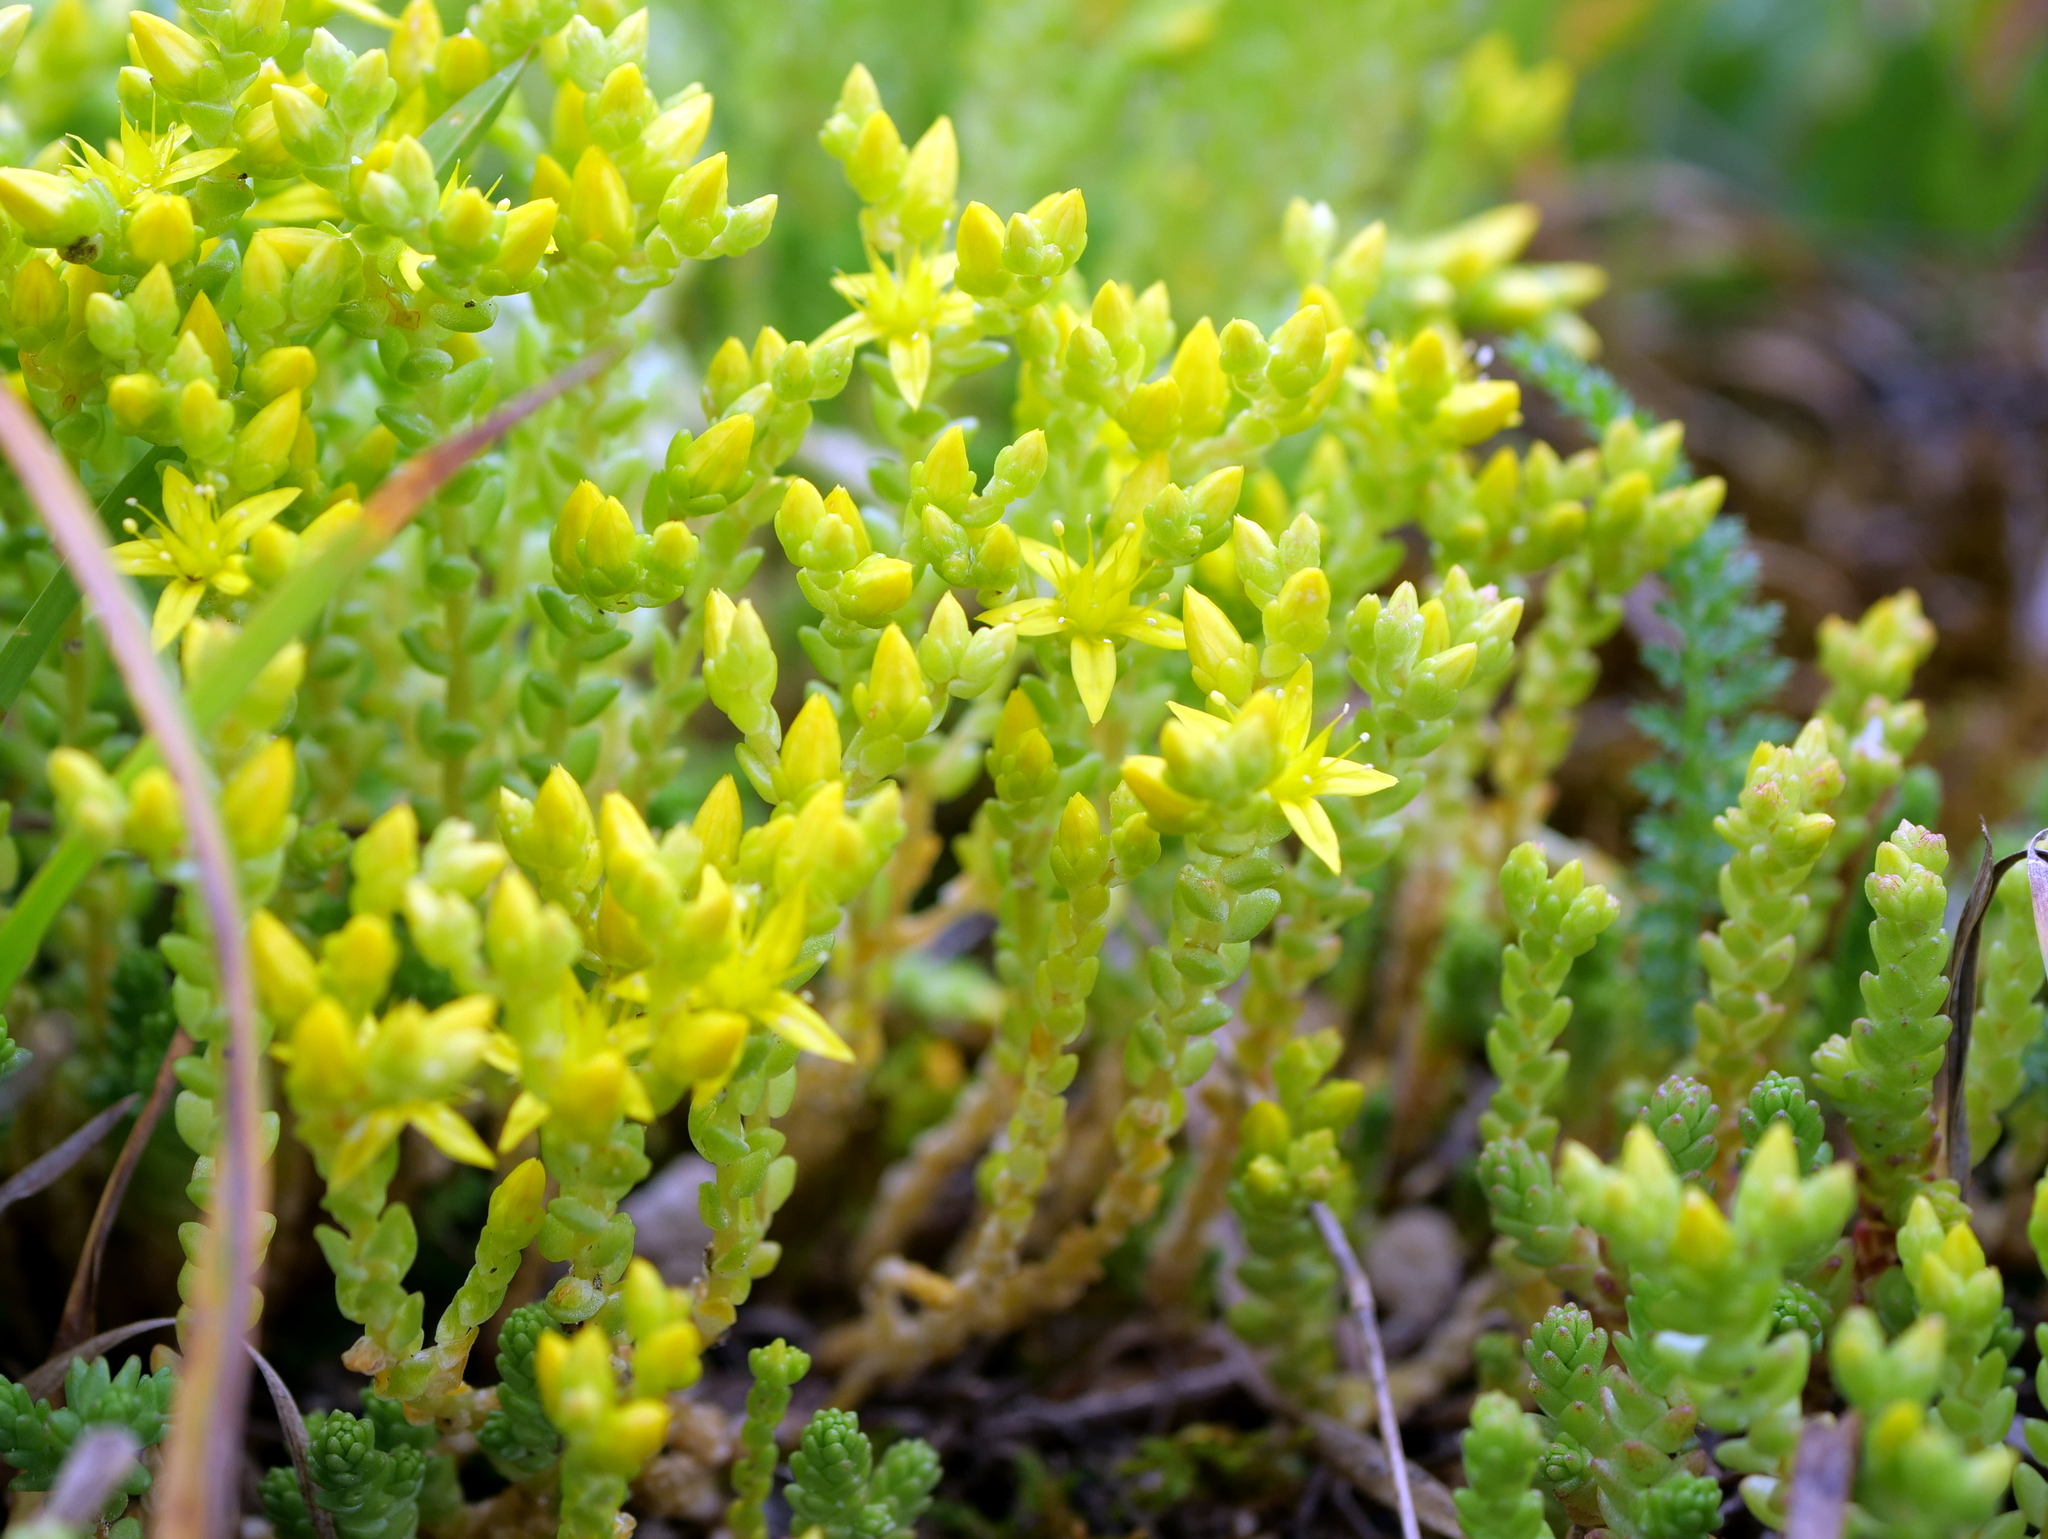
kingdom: Plantae
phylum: Tracheophyta
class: Magnoliopsida
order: Saxifragales
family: Crassulaceae
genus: Sedum
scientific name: Sedum acre
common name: Biting stonecrop
